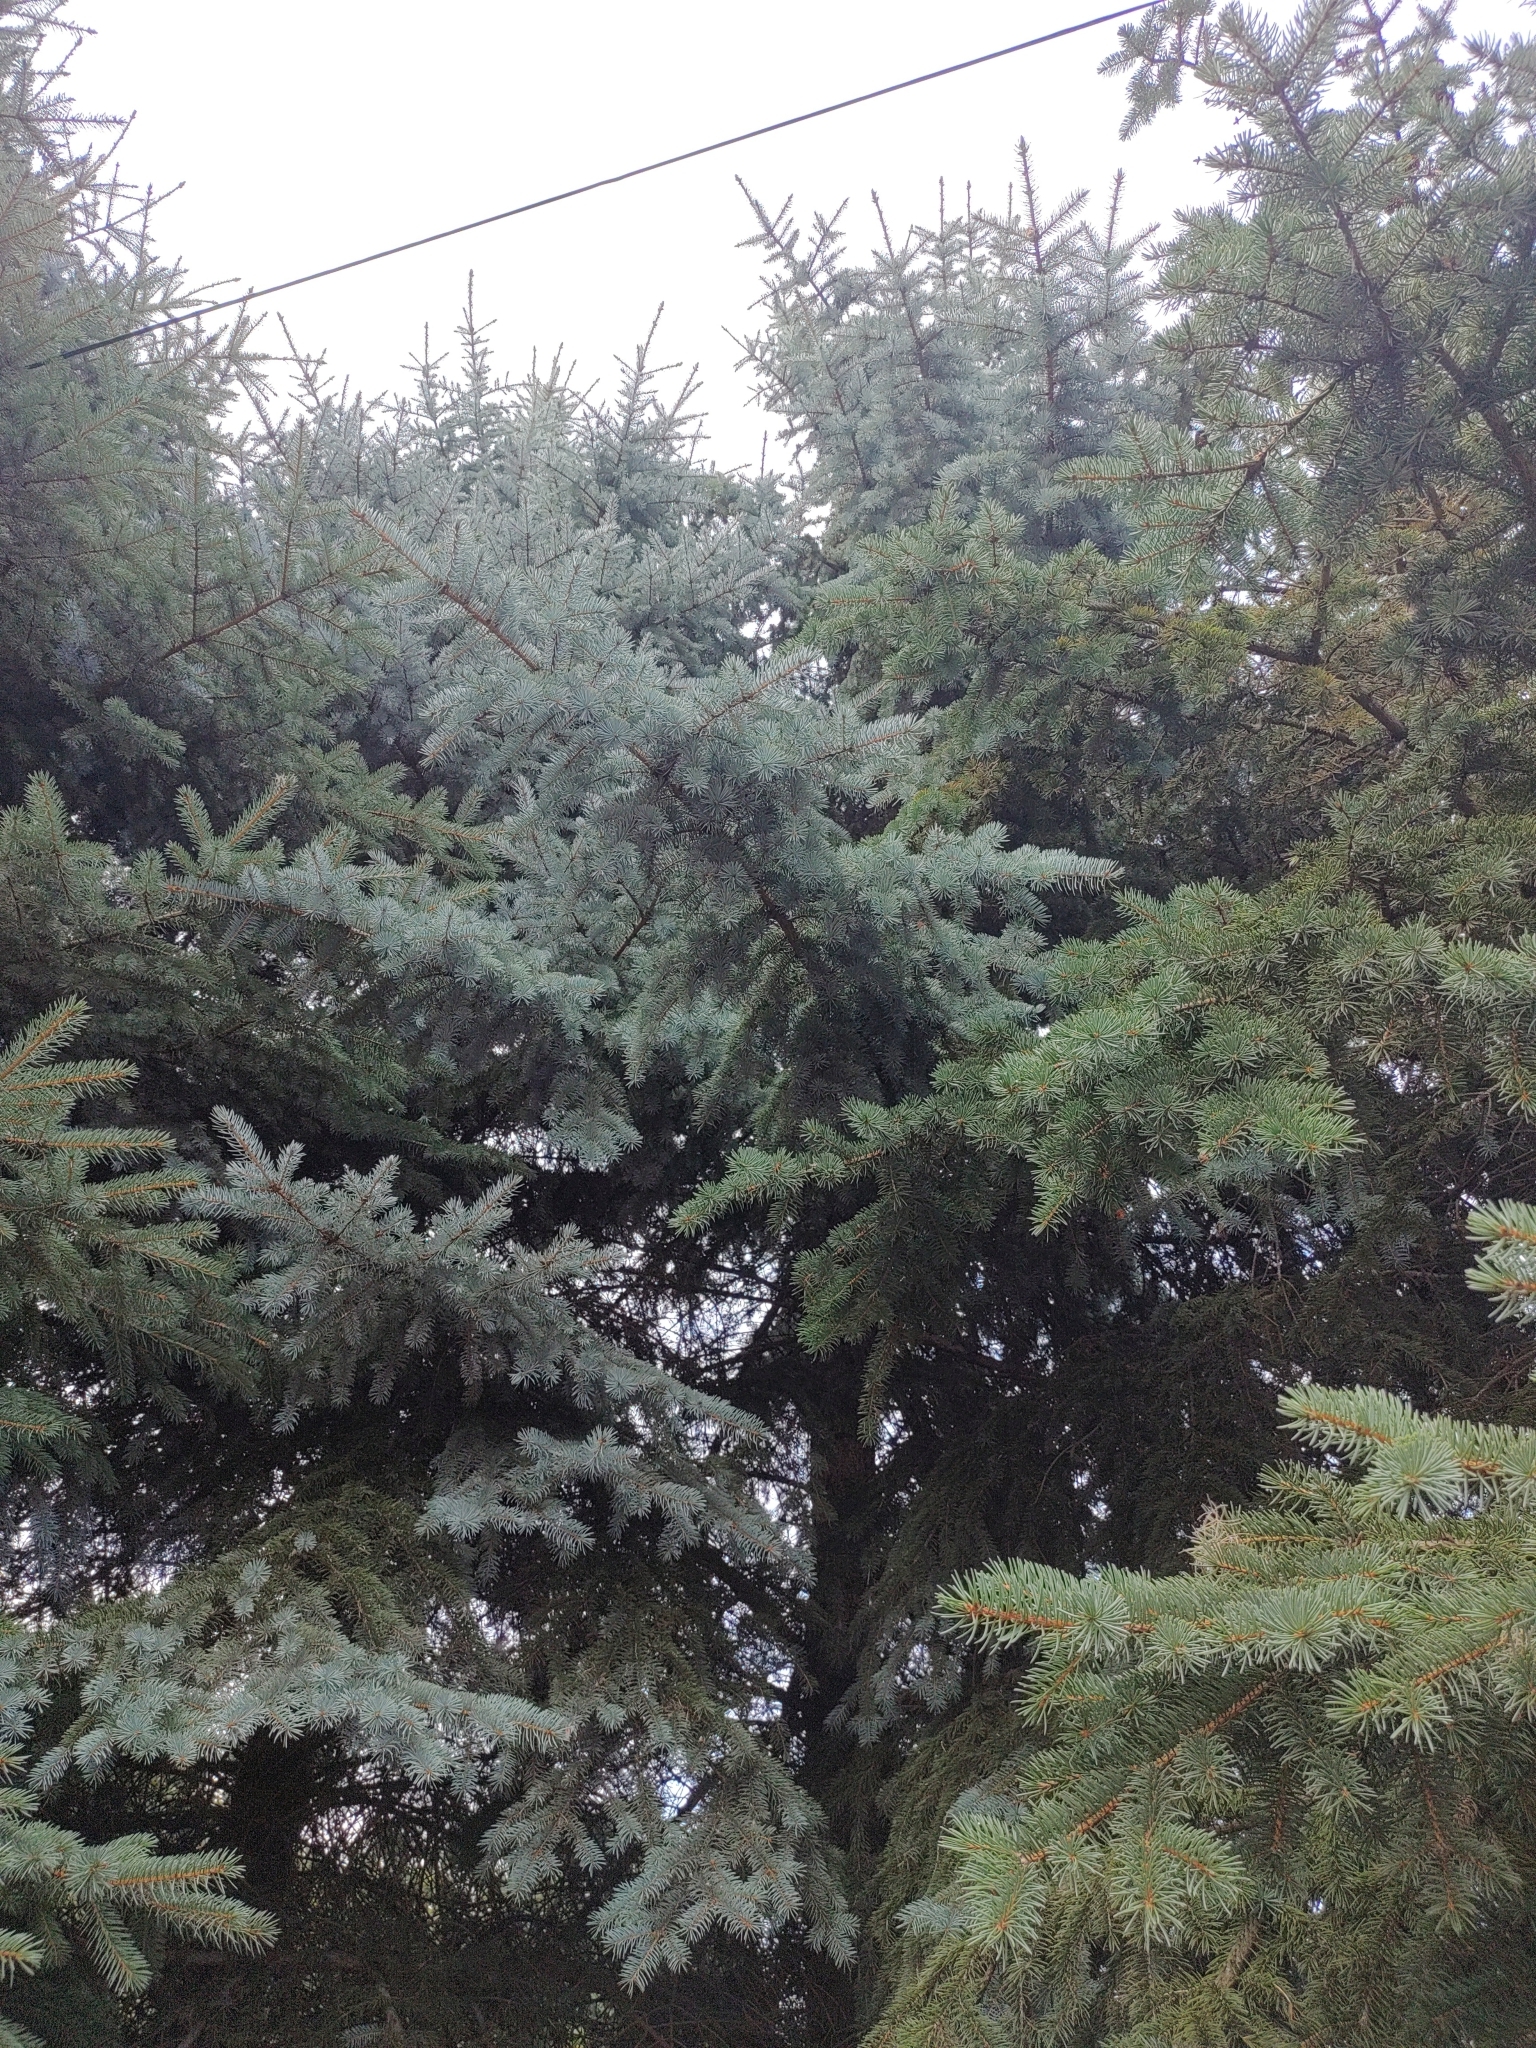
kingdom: Plantae
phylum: Tracheophyta
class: Liliopsida
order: Poales
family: Poaceae
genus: Chloris
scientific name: Chloris chloris
